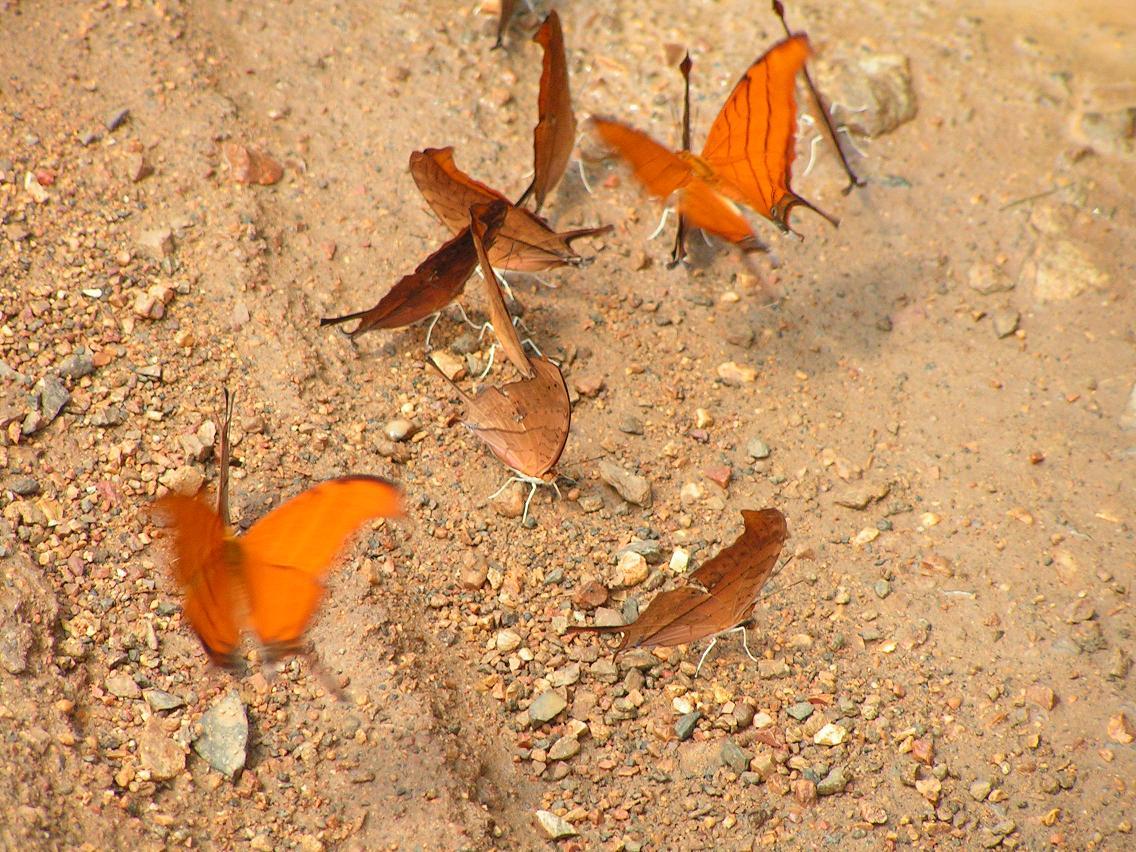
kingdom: Animalia
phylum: Arthropoda
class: Insecta
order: Lepidoptera
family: Nymphalidae
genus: Marpesia
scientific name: Marpesia petreus
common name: Red dagger wing
